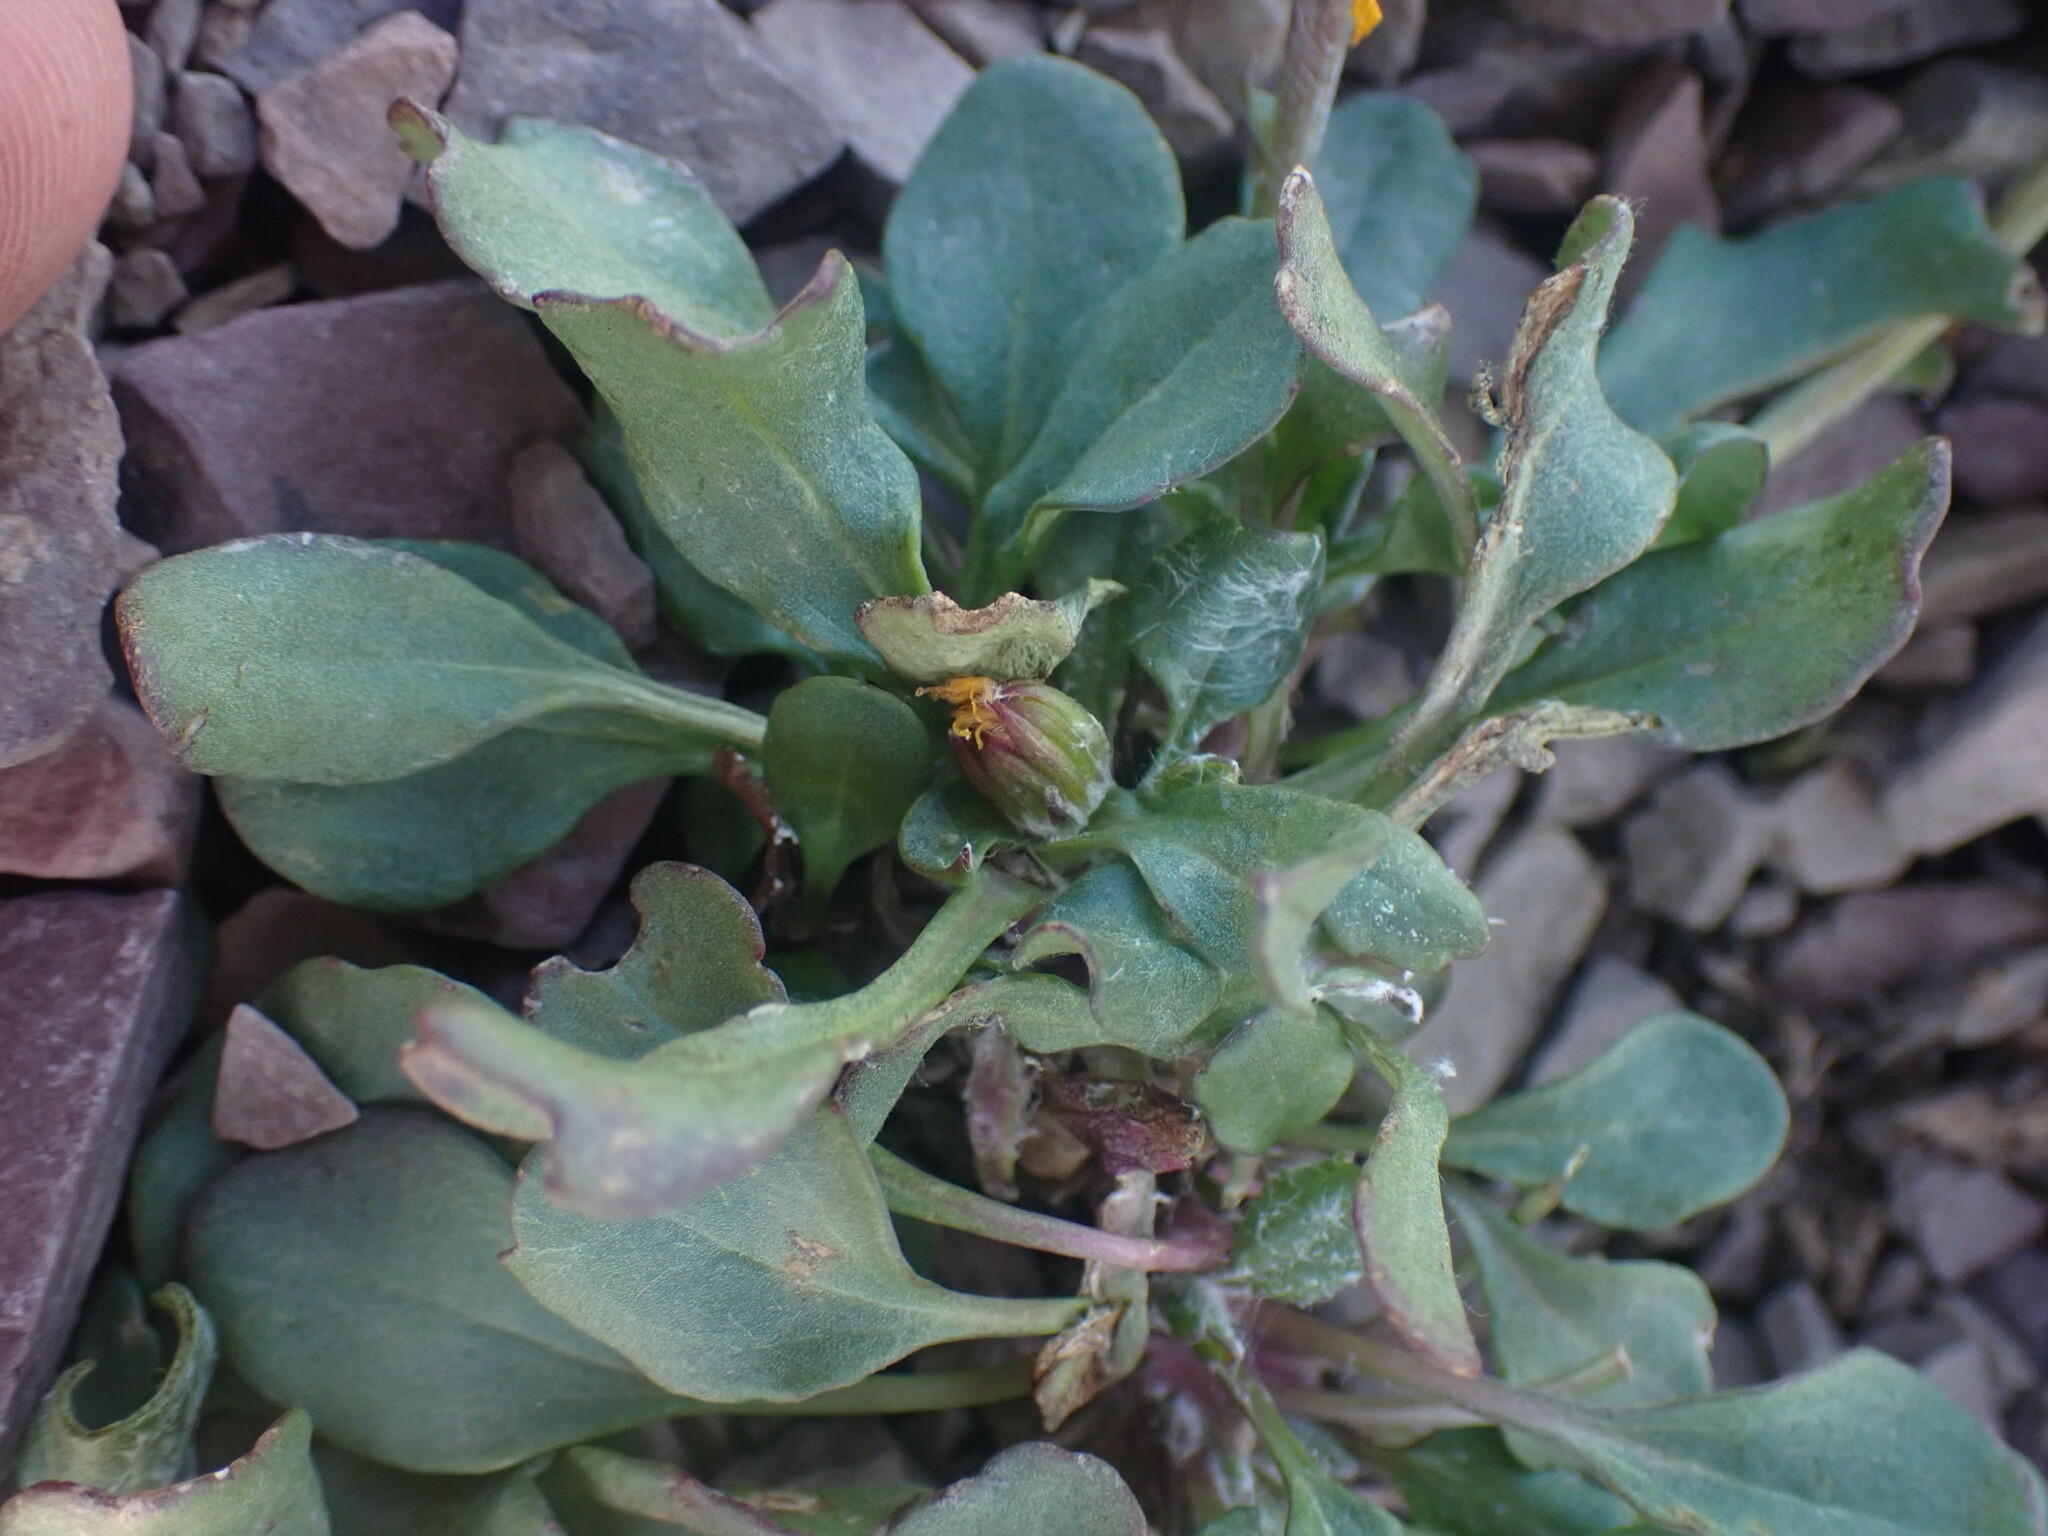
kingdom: Plantae
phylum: Tracheophyta
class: Magnoliopsida
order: Asterales
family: Asteraceae
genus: Packera
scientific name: Packera contermina
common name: High alpine butterweed
